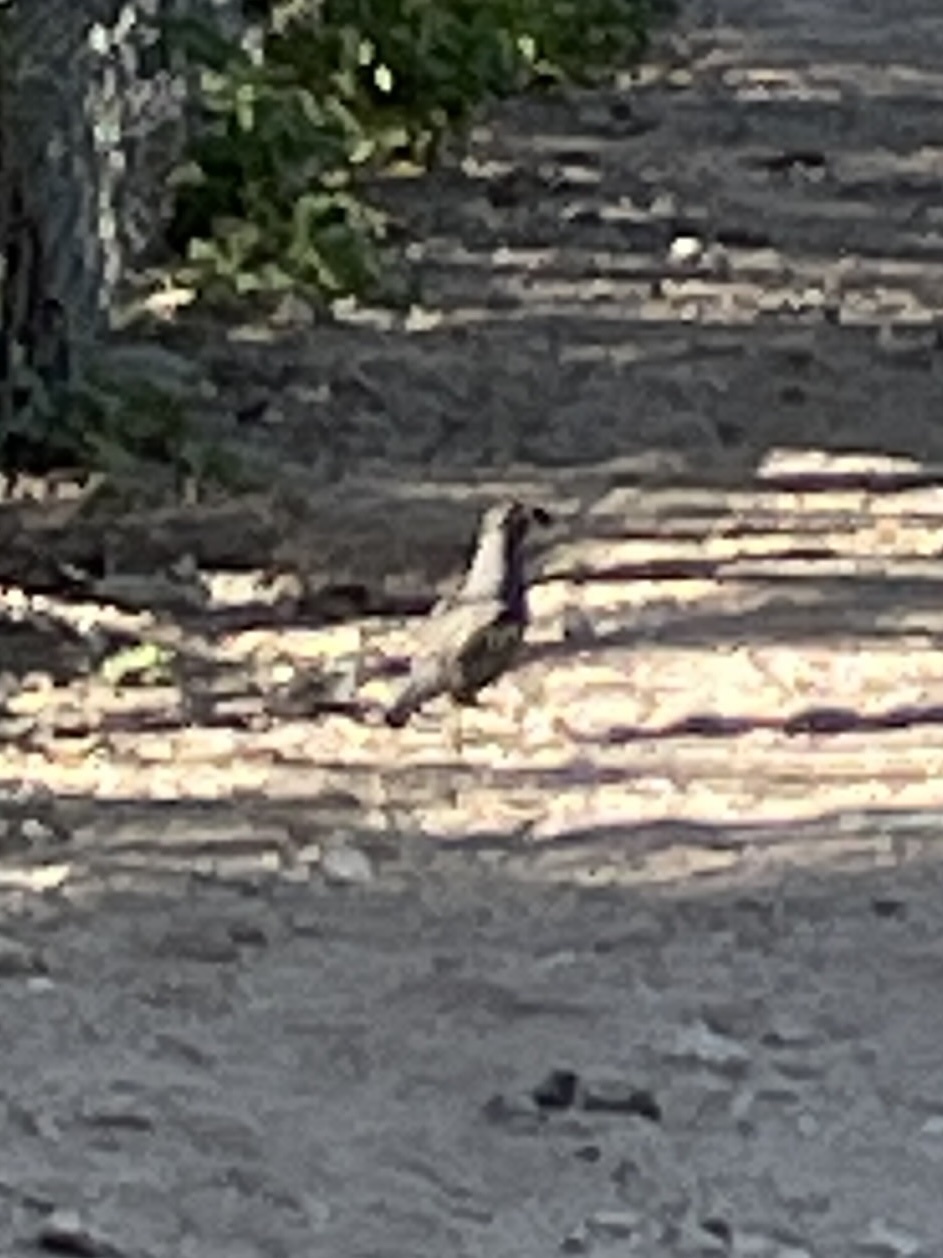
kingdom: Animalia
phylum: Chordata
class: Aves
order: Galliformes
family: Odontophoridae
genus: Callipepla
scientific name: Callipepla californica
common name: California quail
